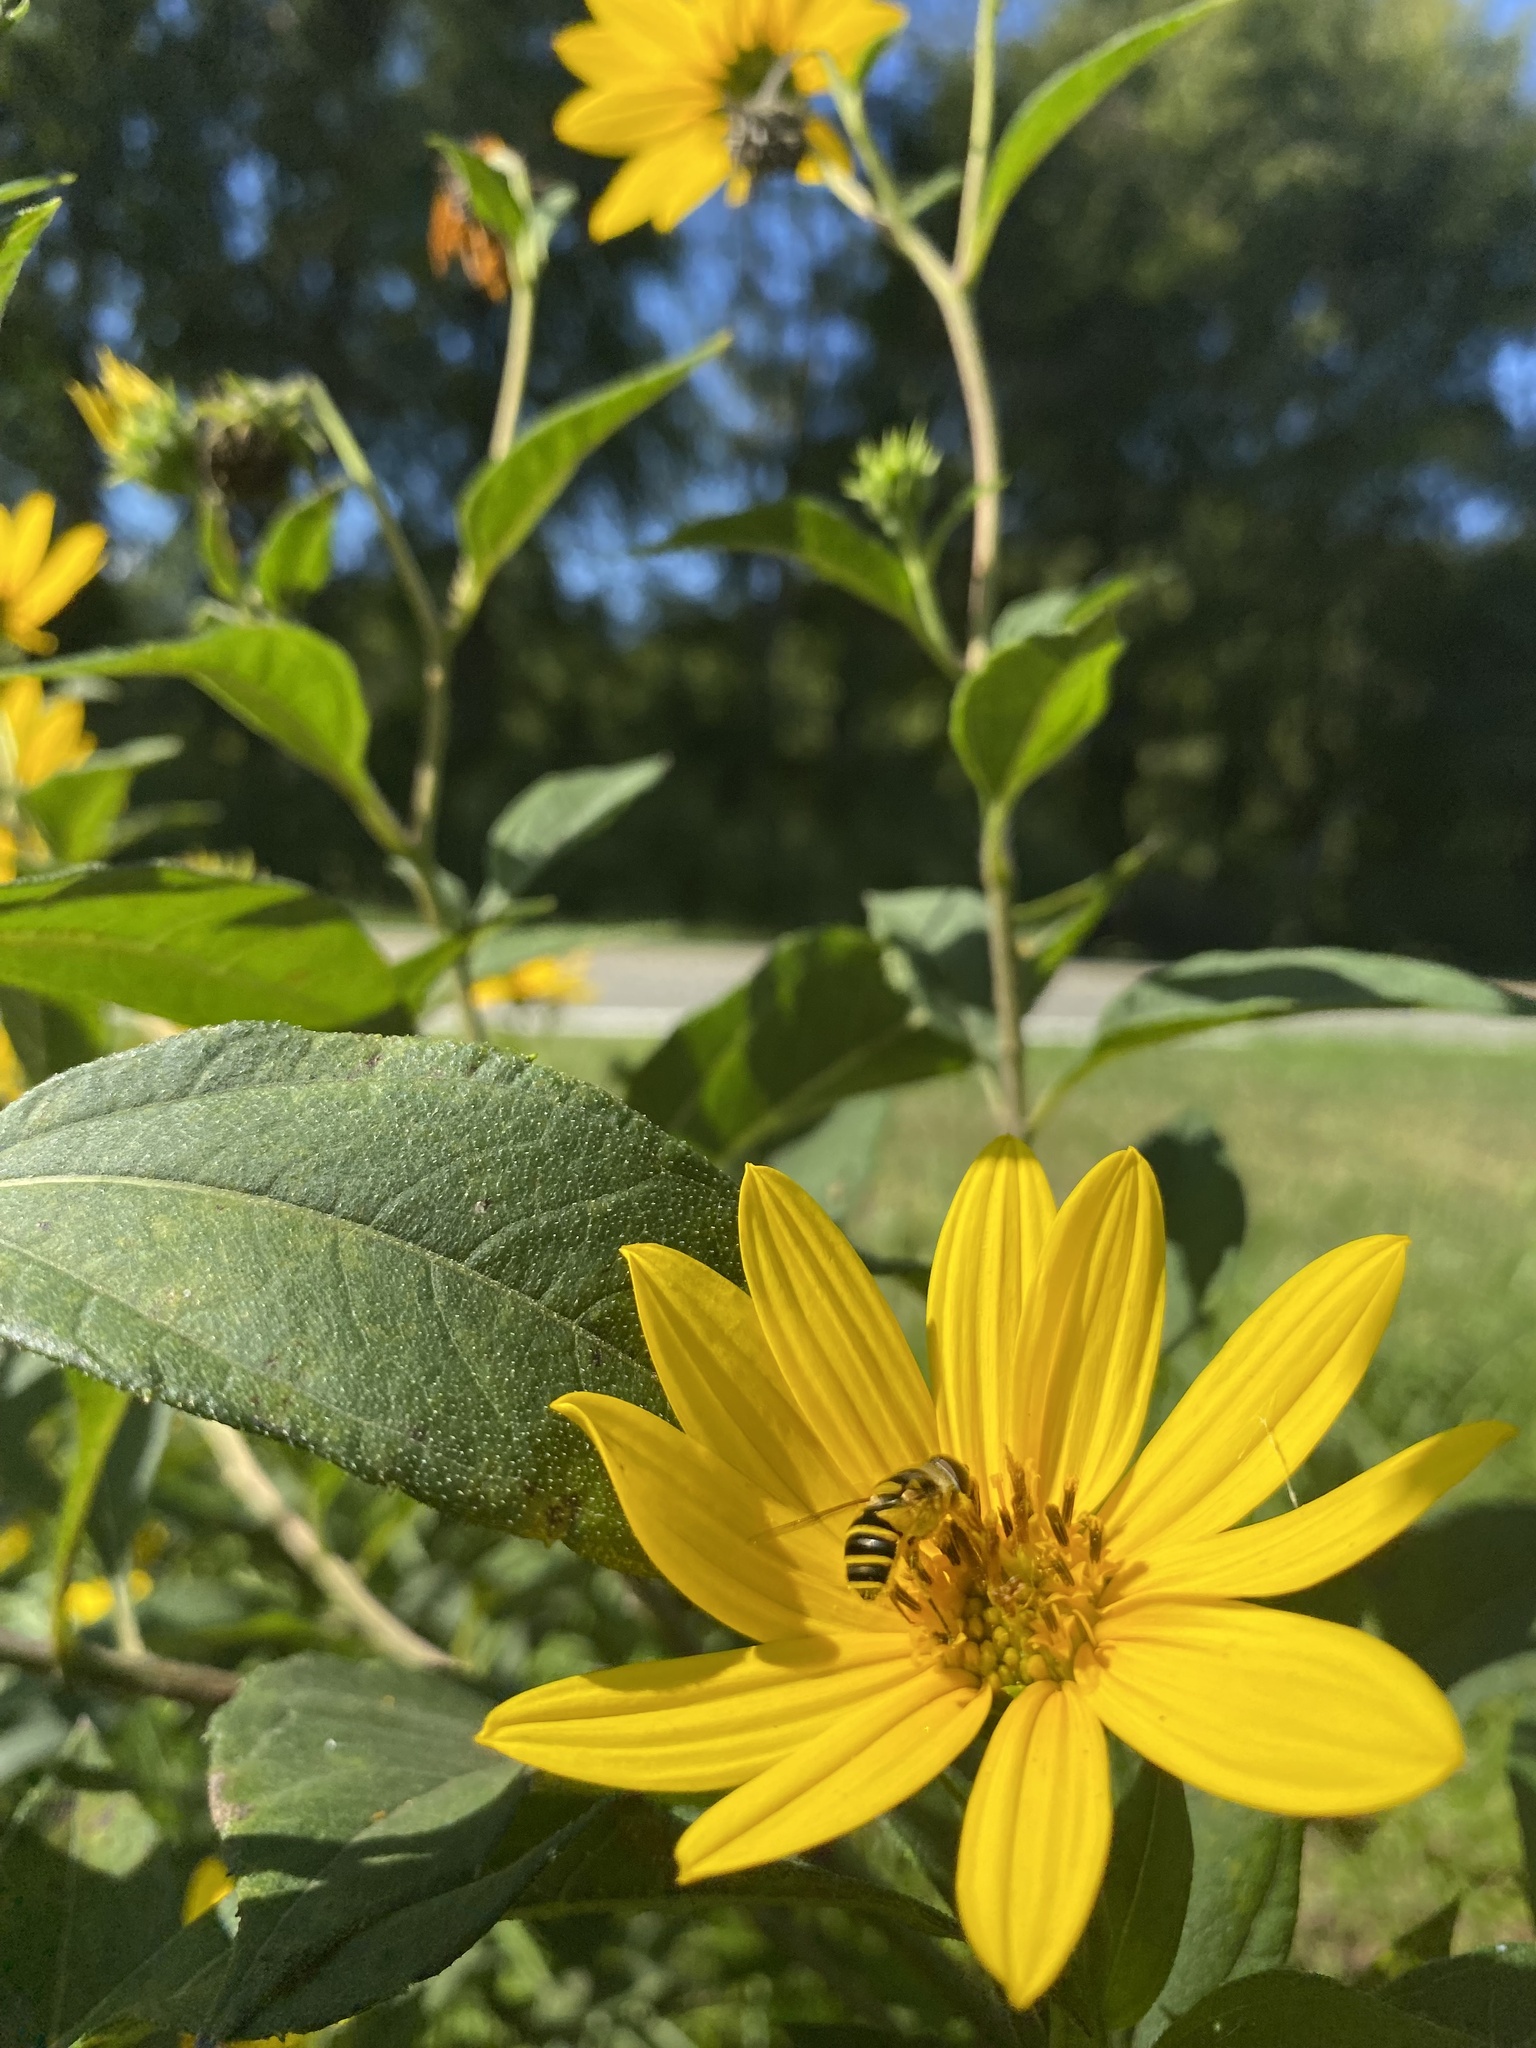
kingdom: Animalia
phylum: Arthropoda
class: Insecta
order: Diptera
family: Syrphidae
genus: Eristalis
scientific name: Eristalis transversa
